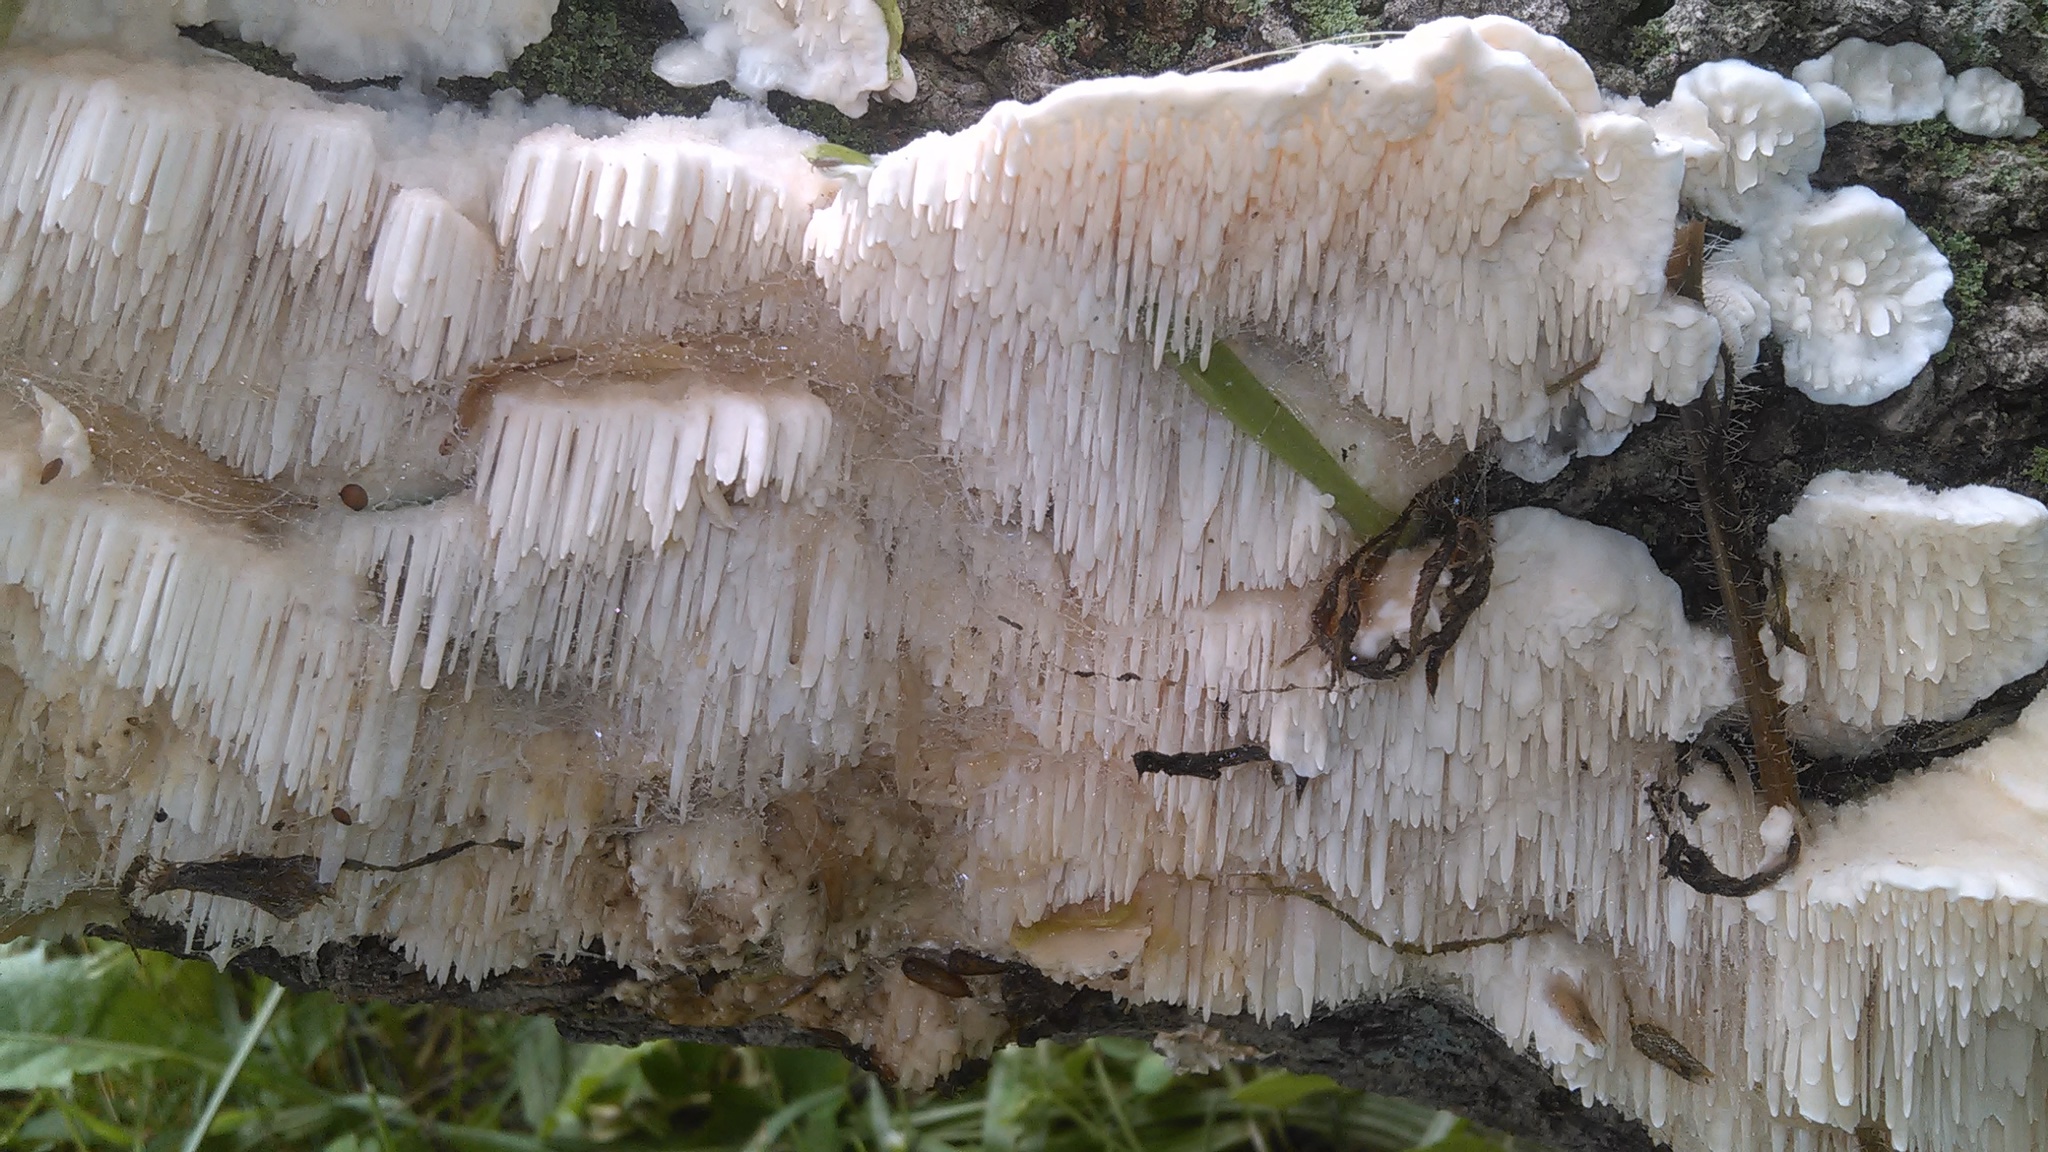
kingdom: Fungi
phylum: Basidiomycota
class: Agaricomycetes
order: Agaricales
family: Radulomycetaceae
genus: Radulomyces
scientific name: Radulomyces copelandii
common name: Asian beauty
